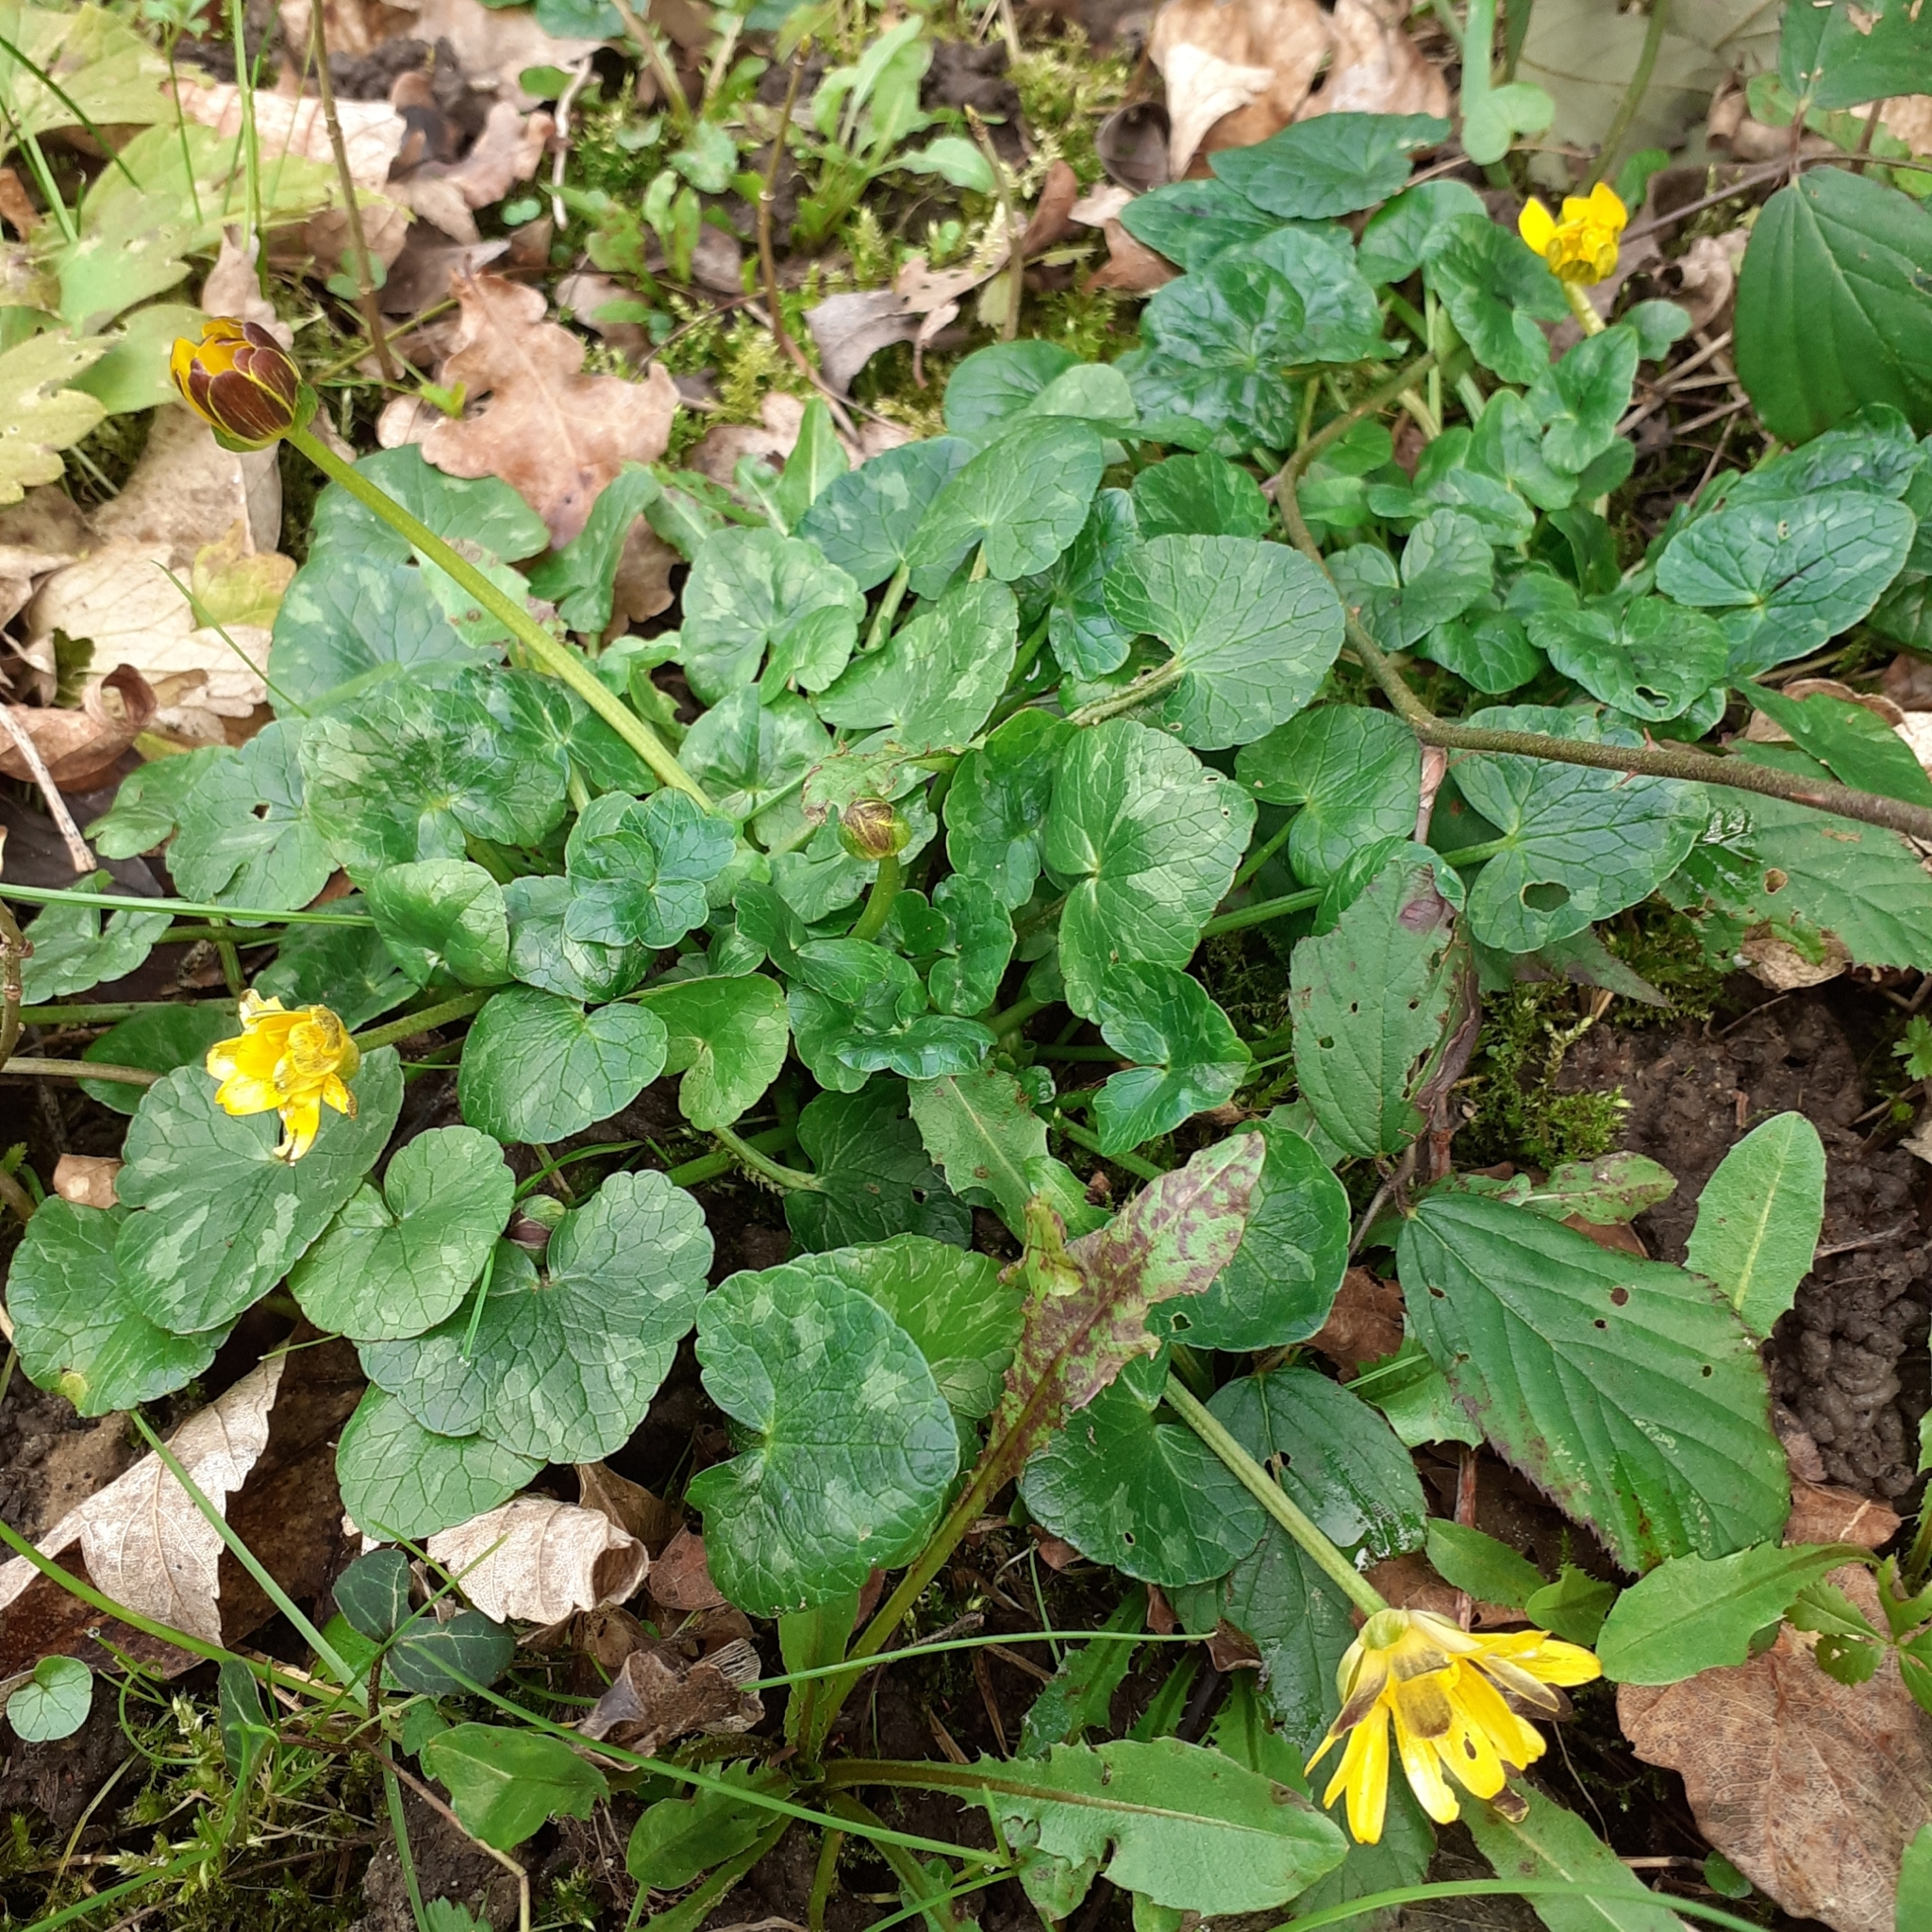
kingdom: Plantae
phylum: Tracheophyta
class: Magnoliopsida
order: Ranunculales
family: Ranunculaceae
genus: Ficaria
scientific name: Ficaria verna
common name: Lesser celandine
